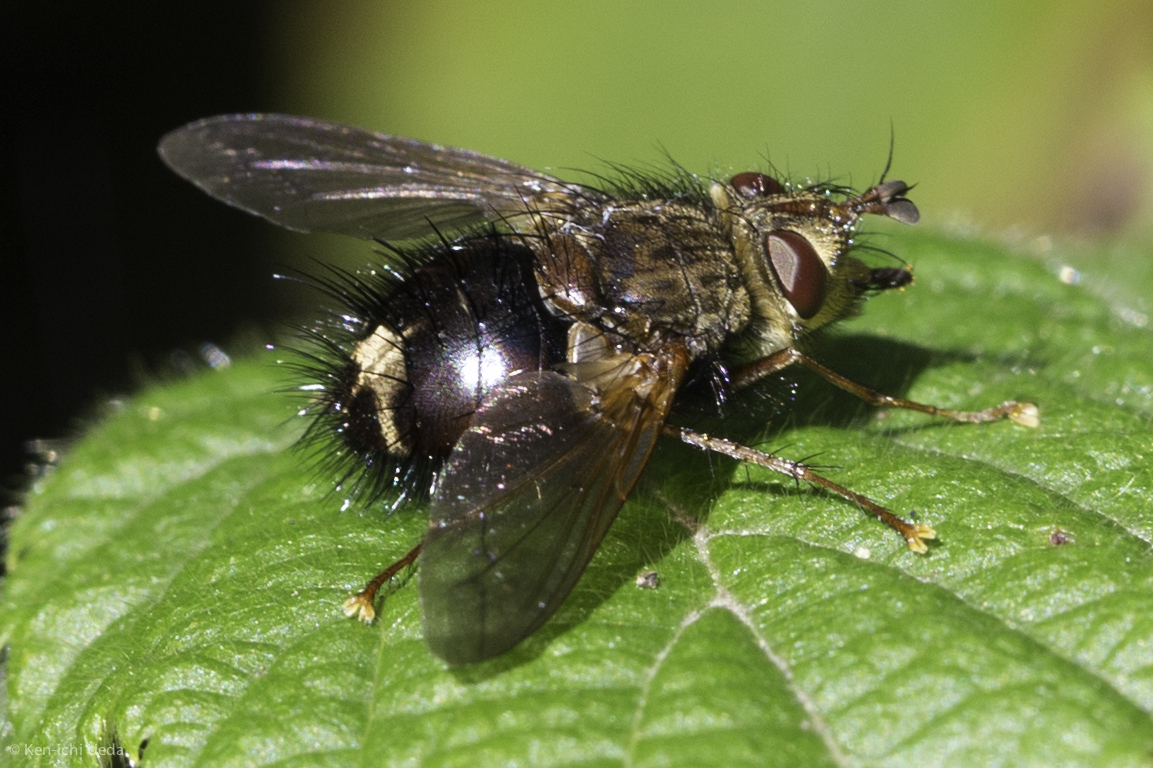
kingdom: Animalia
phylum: Arthropoda
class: Insecta
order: Diptera
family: Tachinidae
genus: Epalpus
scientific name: Epalpus signifer
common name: Early tachinid fly
